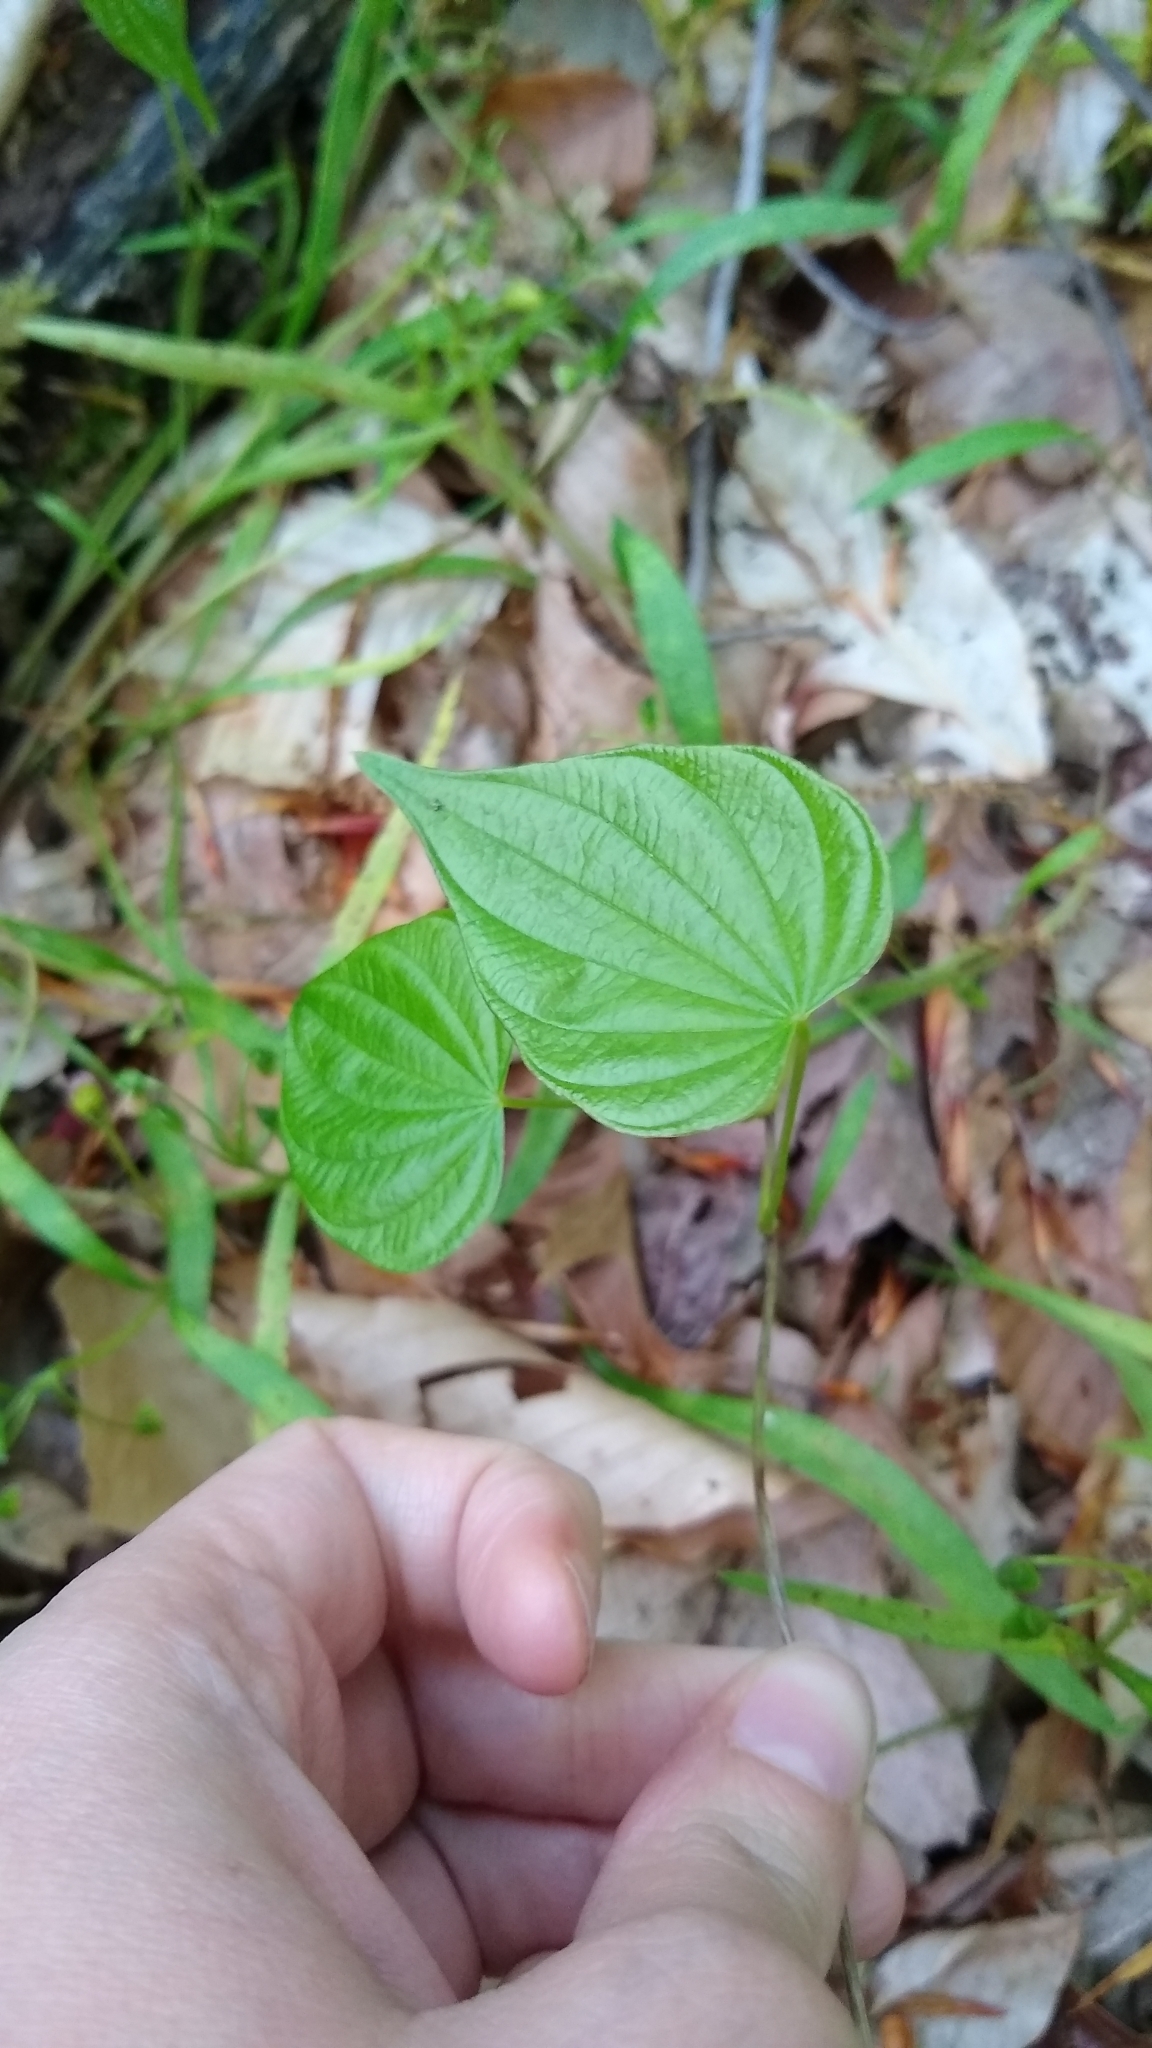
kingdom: Plantae
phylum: Tracheophyta
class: Liliopsida
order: Dioscoreales
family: Dioscoreaceae
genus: Dioscorea
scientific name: Dioscorea villosa
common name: Wild yam
